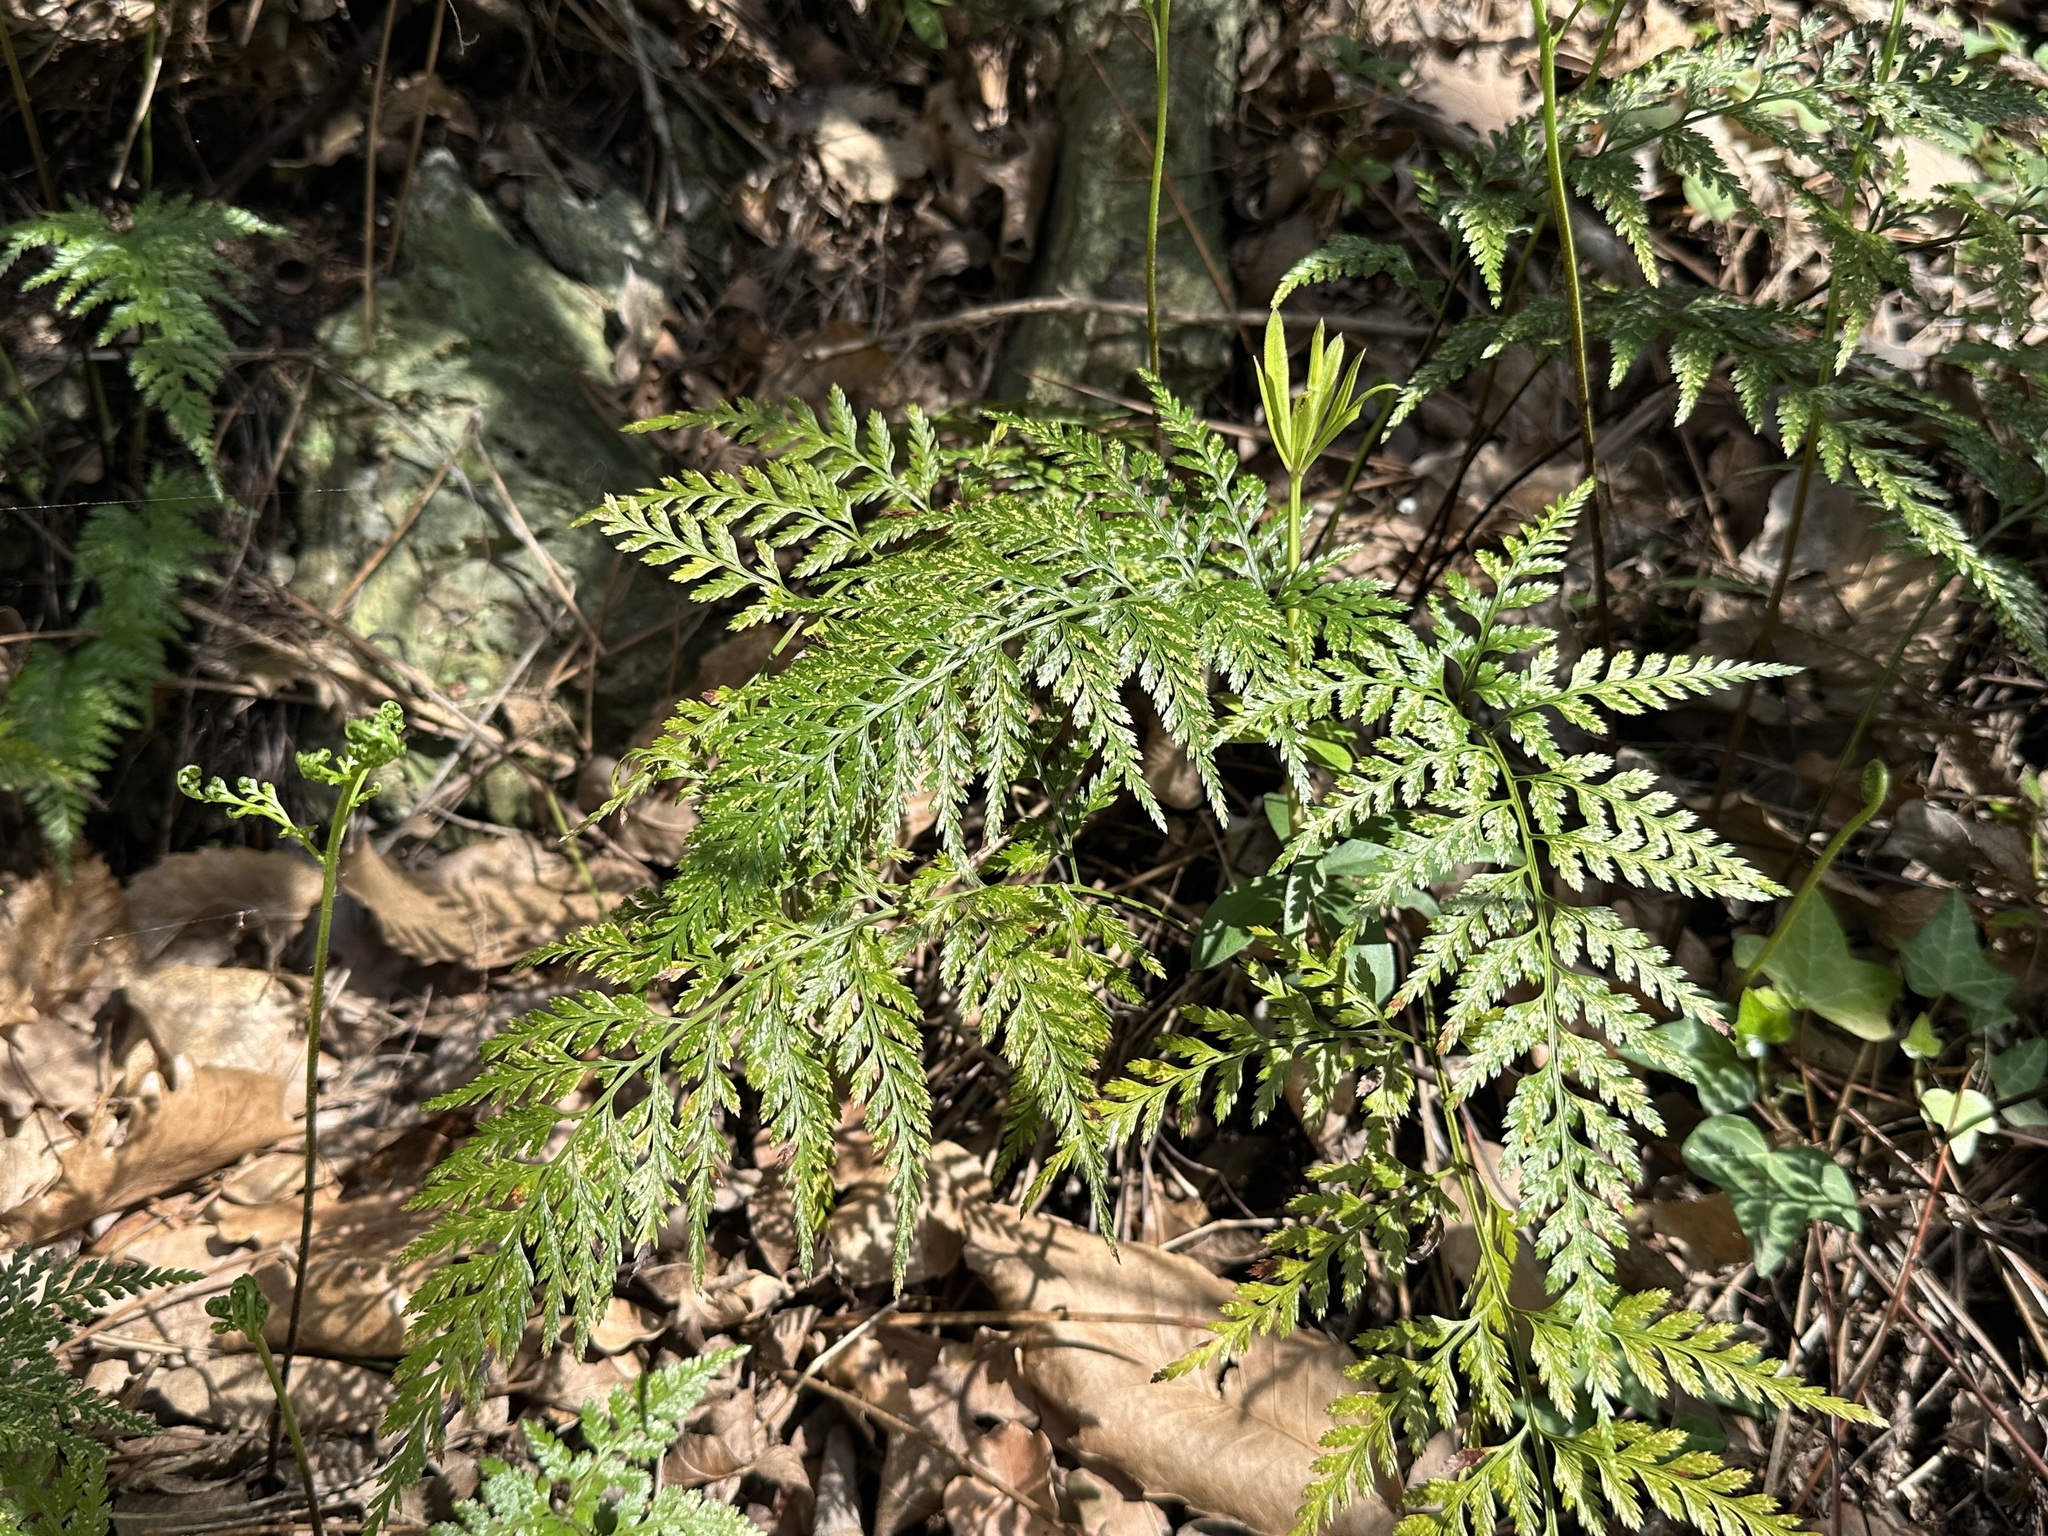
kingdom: Plantae
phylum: Tracheophyta
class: Polypodiopsida
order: Polypodiales
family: Aspleniaceae
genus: Asplenium
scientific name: Asplenium onopteris
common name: Irish spleenwort
